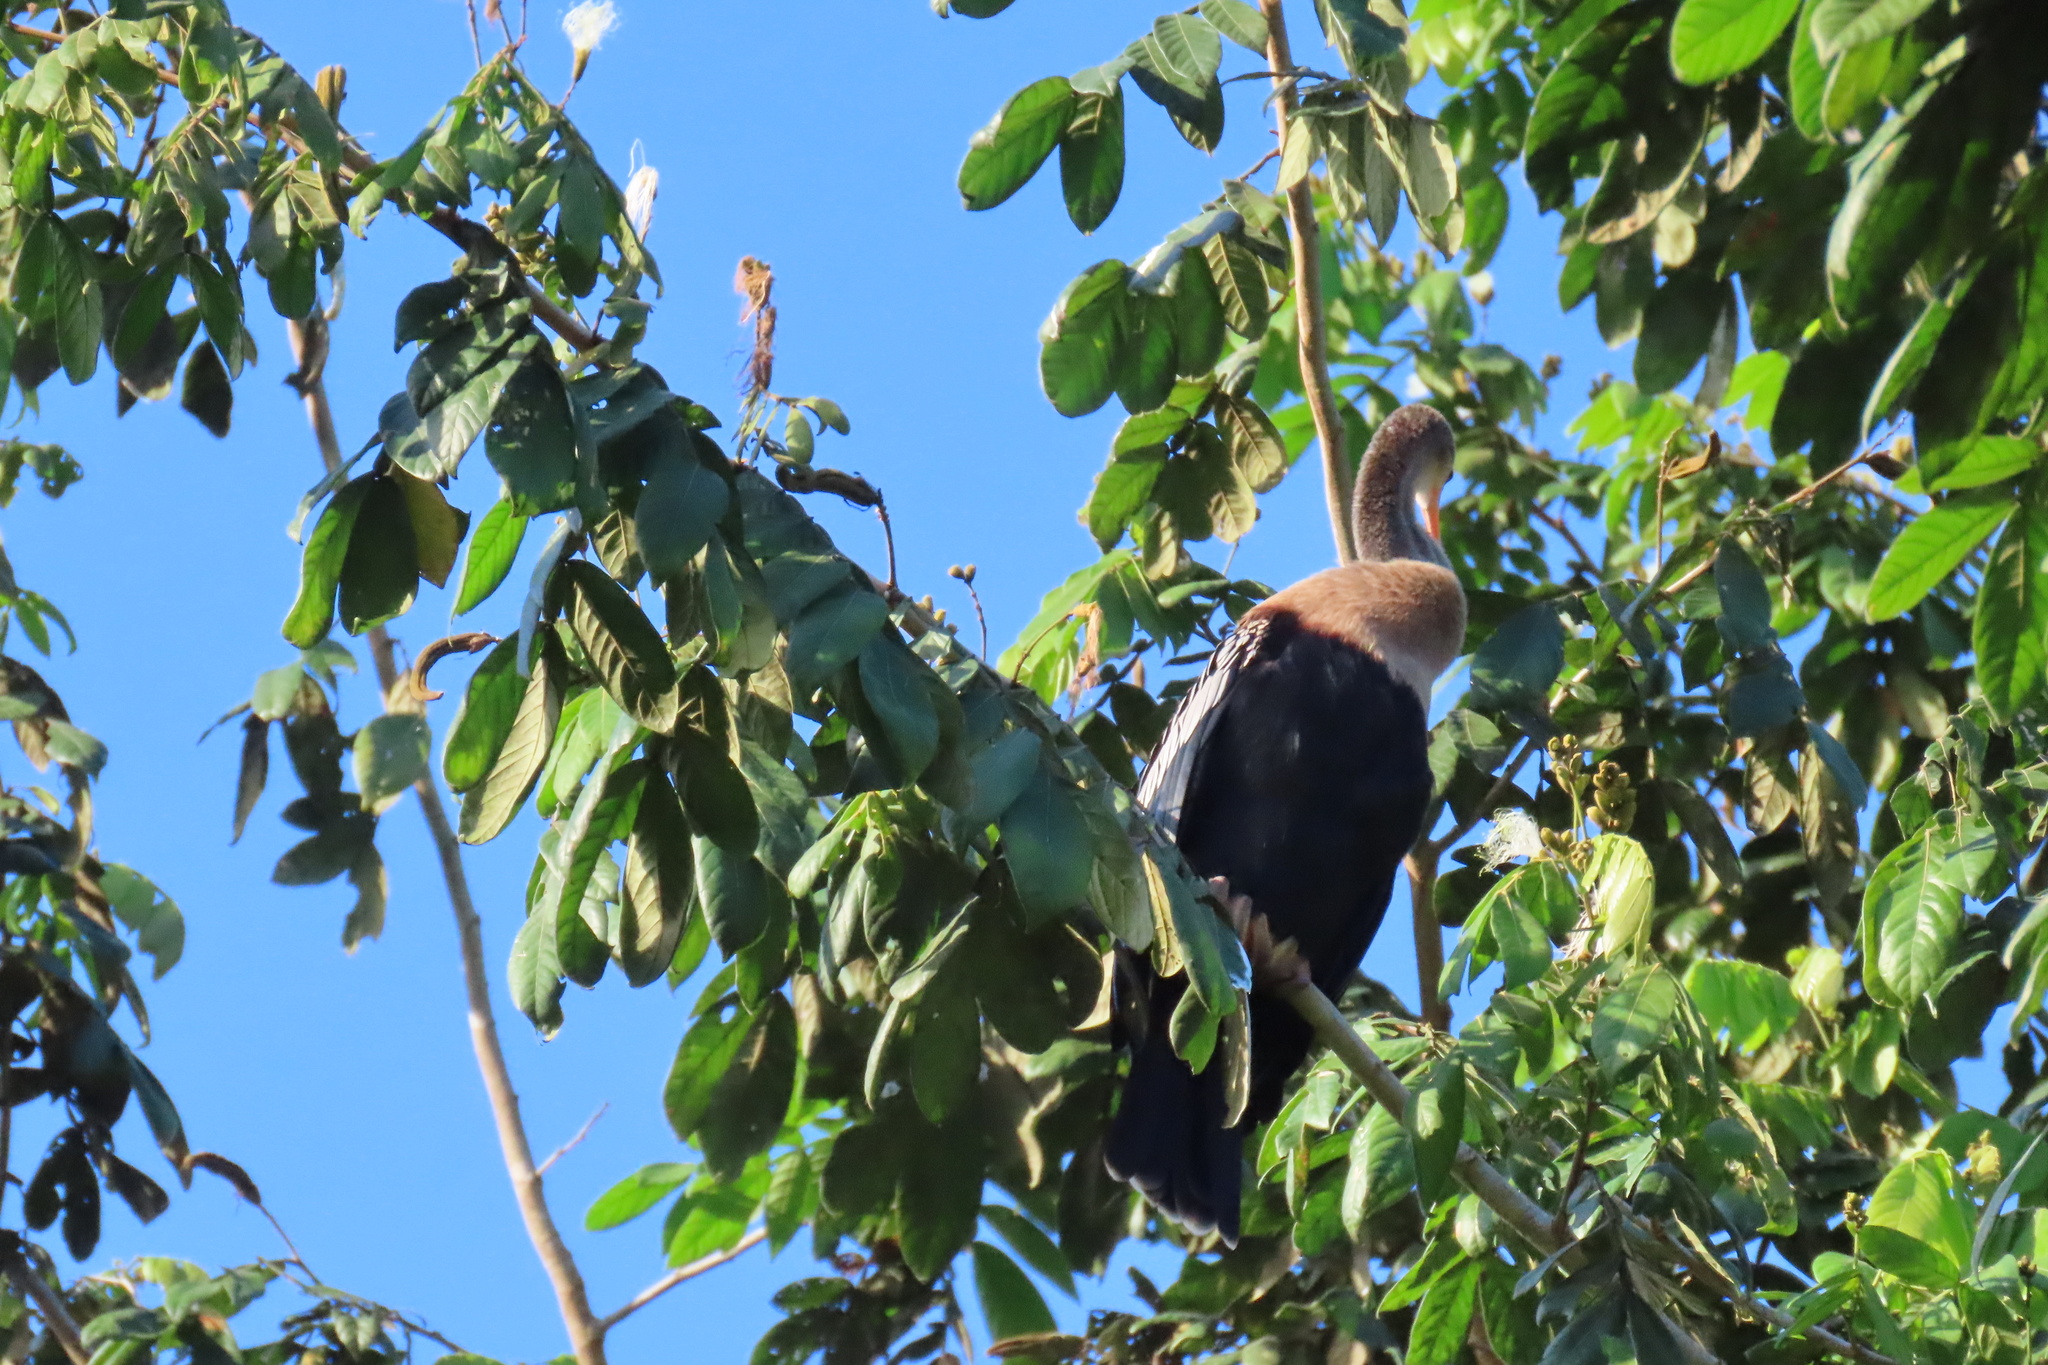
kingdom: Animalia
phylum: Chordata
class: Aves
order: Suliformes
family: Anhingidae
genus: Anhinga
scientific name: Anhinga anhinga
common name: Anhinga
